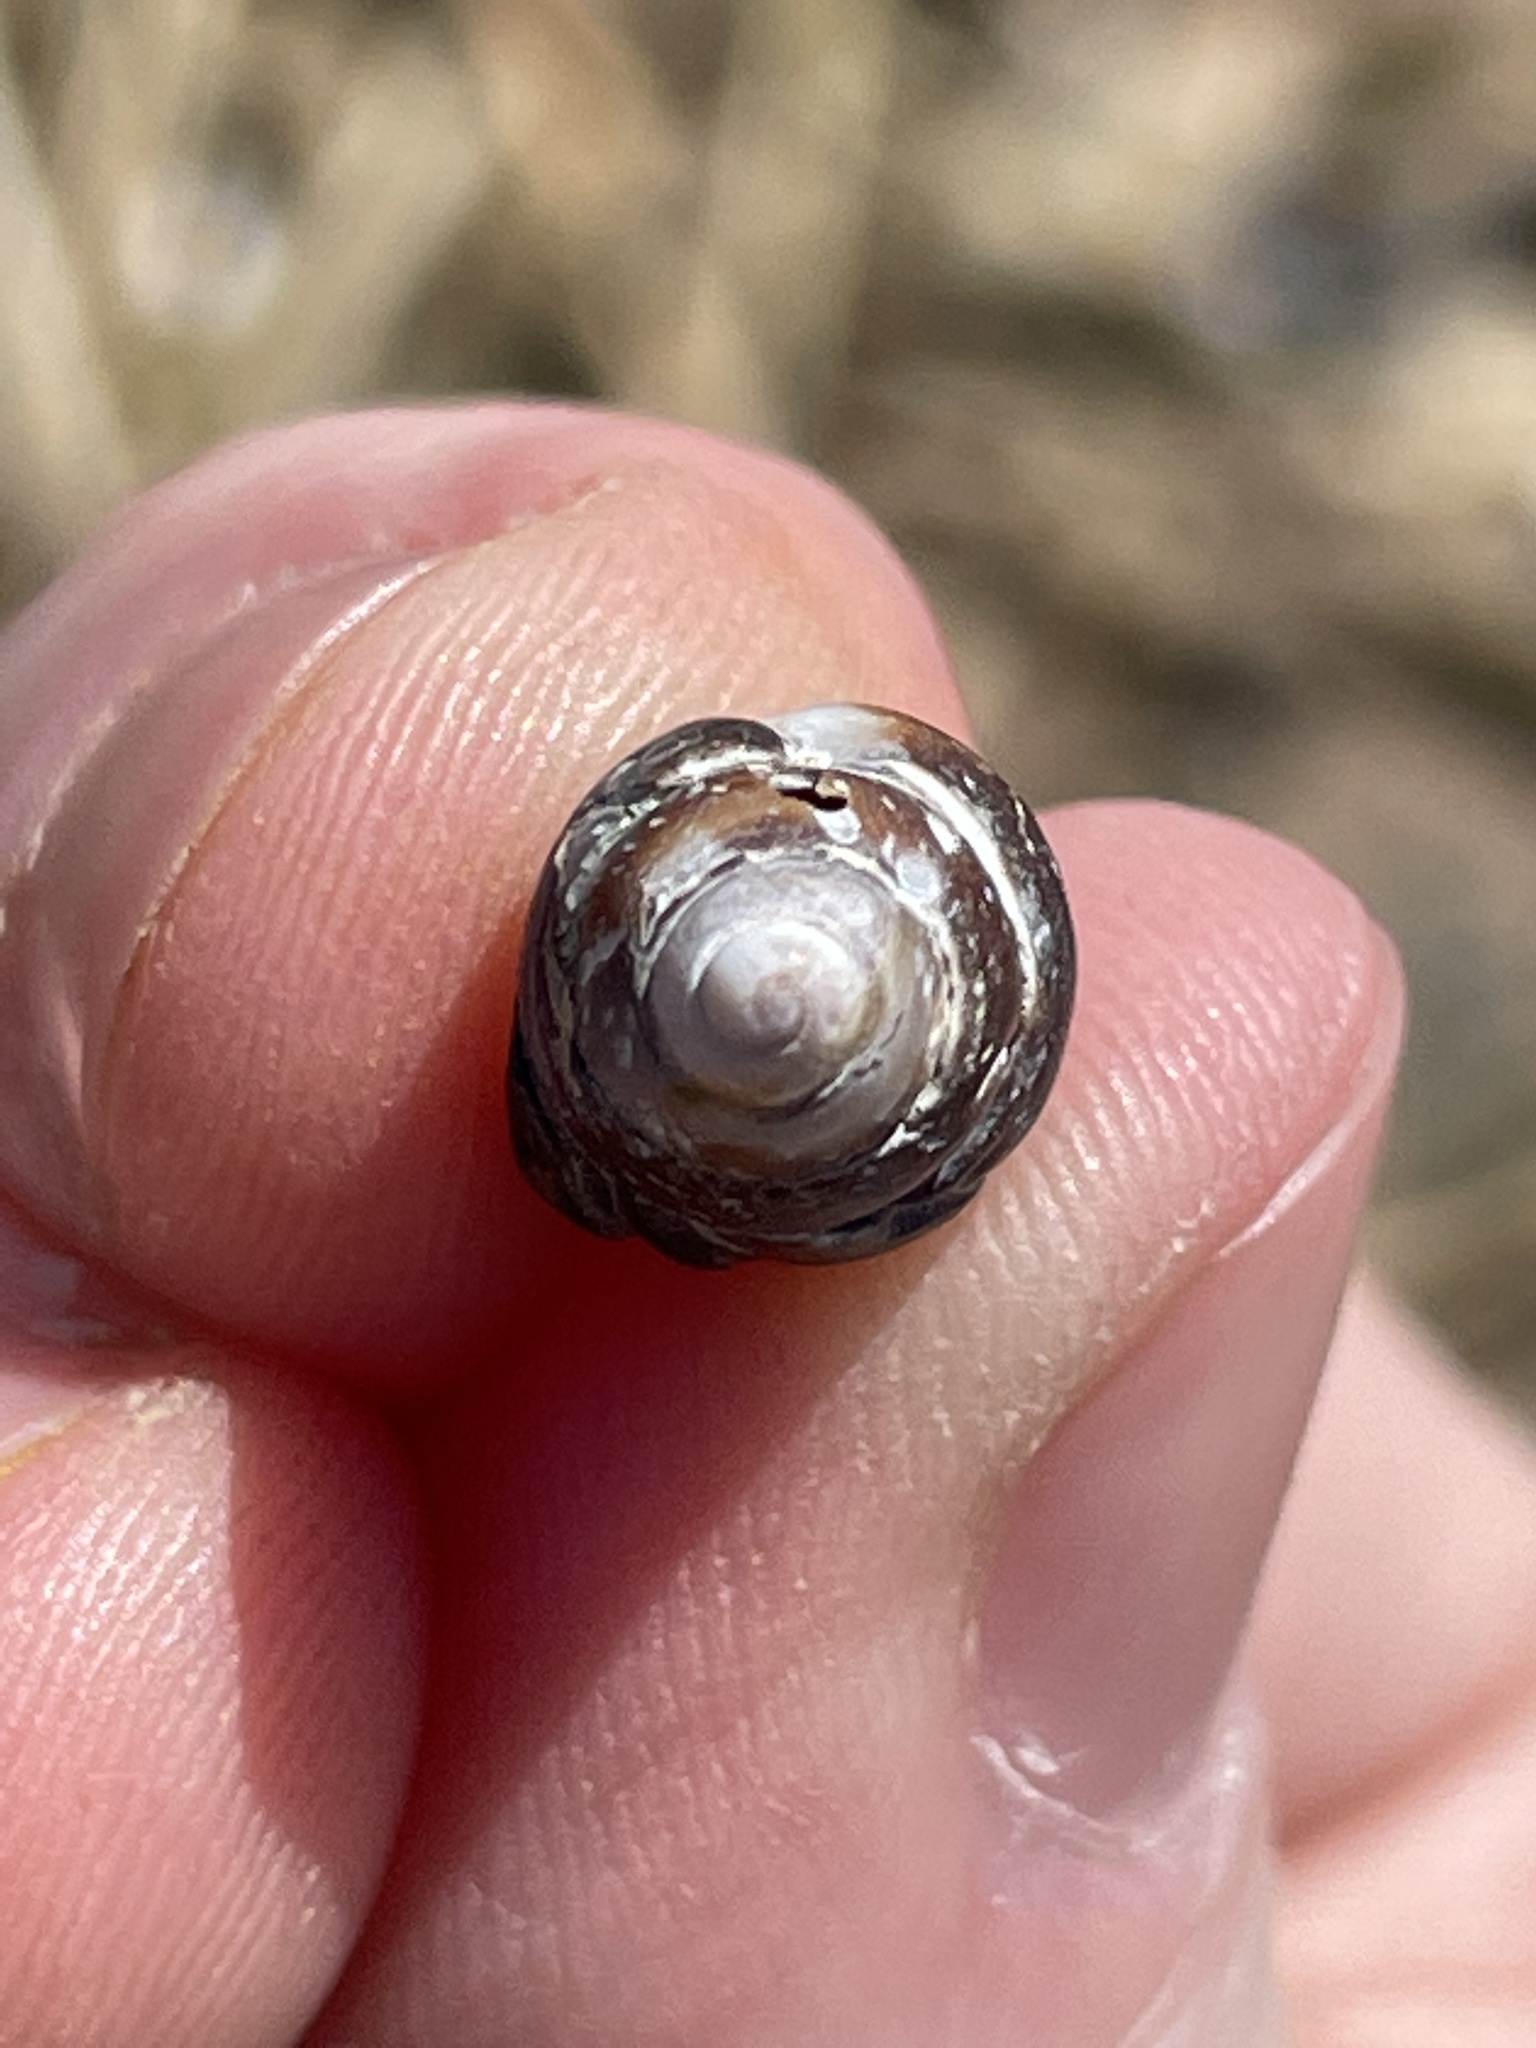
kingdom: Animalia
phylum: Mollusca
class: Gastropoda
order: Neogastropoda
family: Nassariidae
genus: Ilyanassa
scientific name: Ilyanassa obsoleta
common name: Eastern mudsnail
